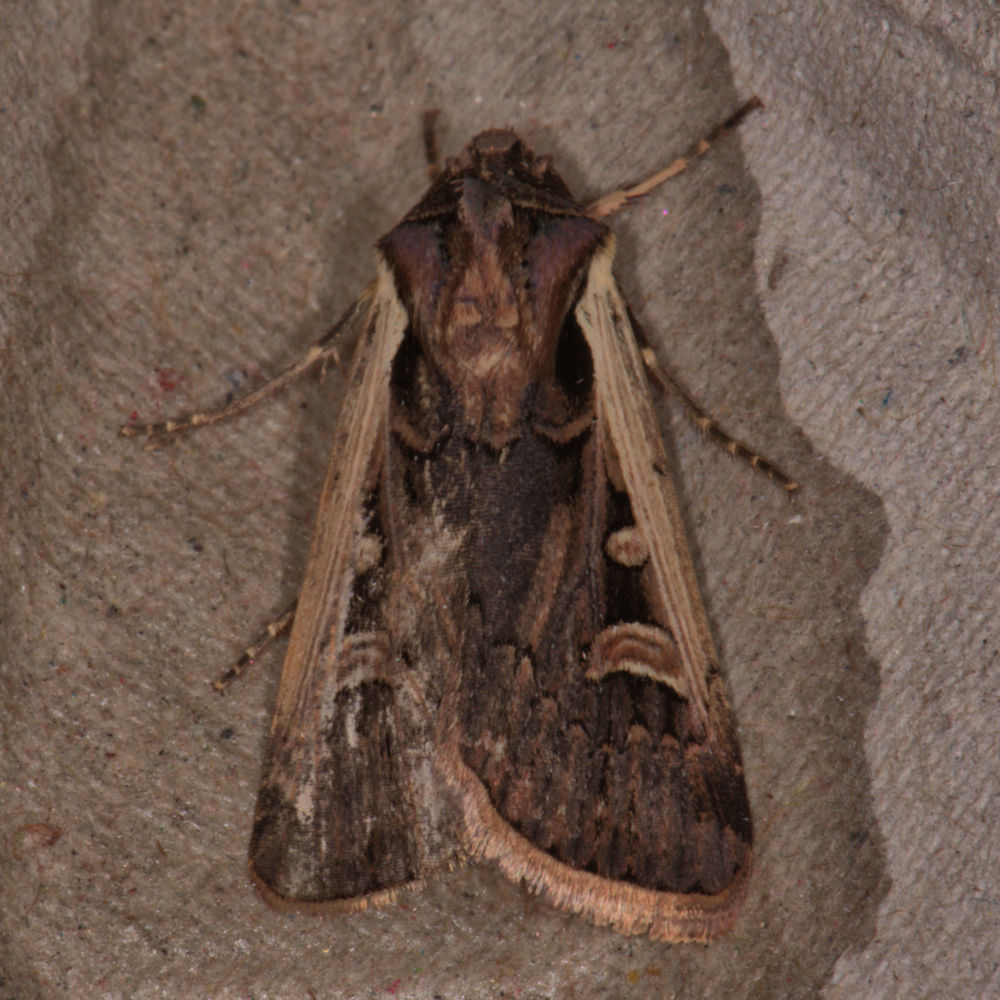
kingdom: Animalia
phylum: Arthropoda
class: Insecta
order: Lepidoptera
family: Noctuidae
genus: Striacosta
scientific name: Striacosta albicosta
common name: Western bean cutworm moth
